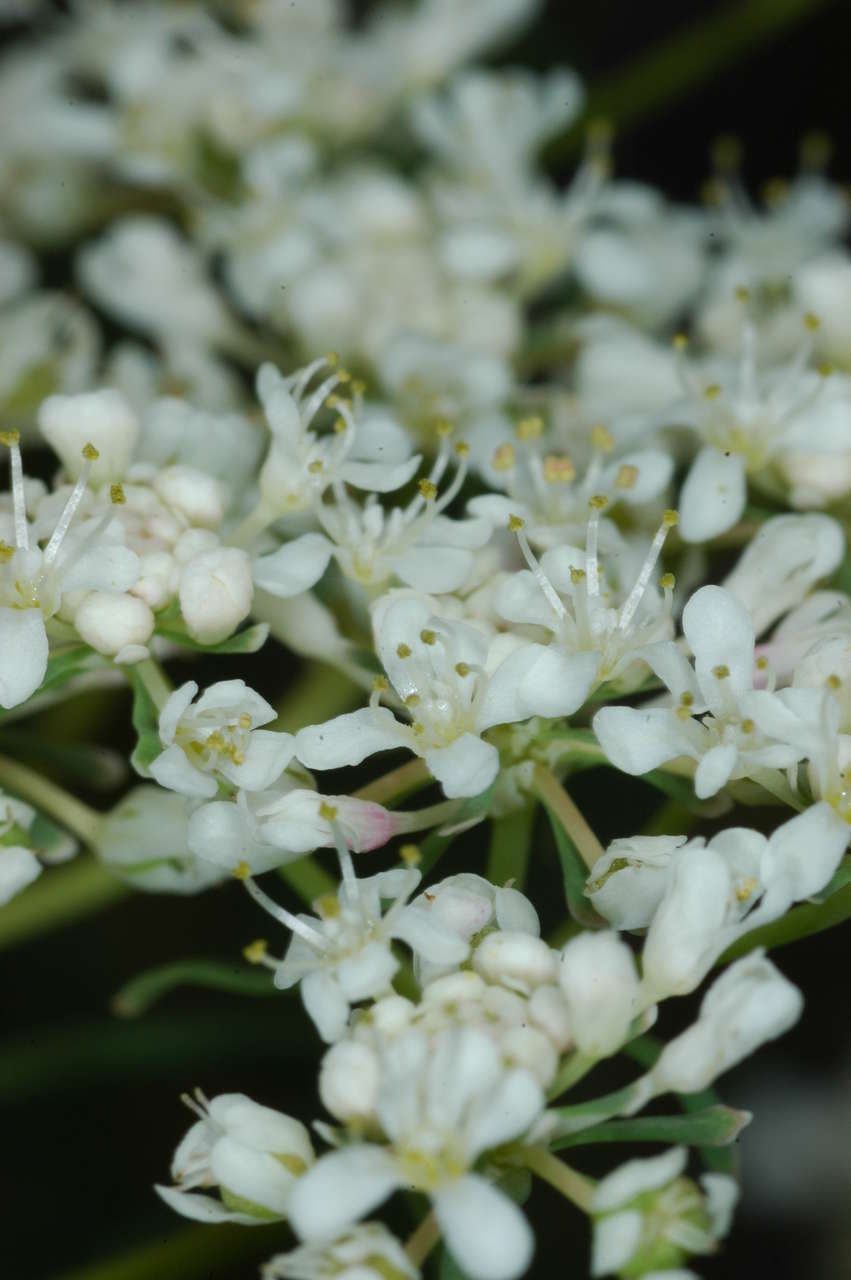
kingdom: Plantae
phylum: Tracheophyta
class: Magnoliopsida
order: Malpighiales
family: Phyllanthaceae
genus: Poranthera
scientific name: Poranthera corymbosa
